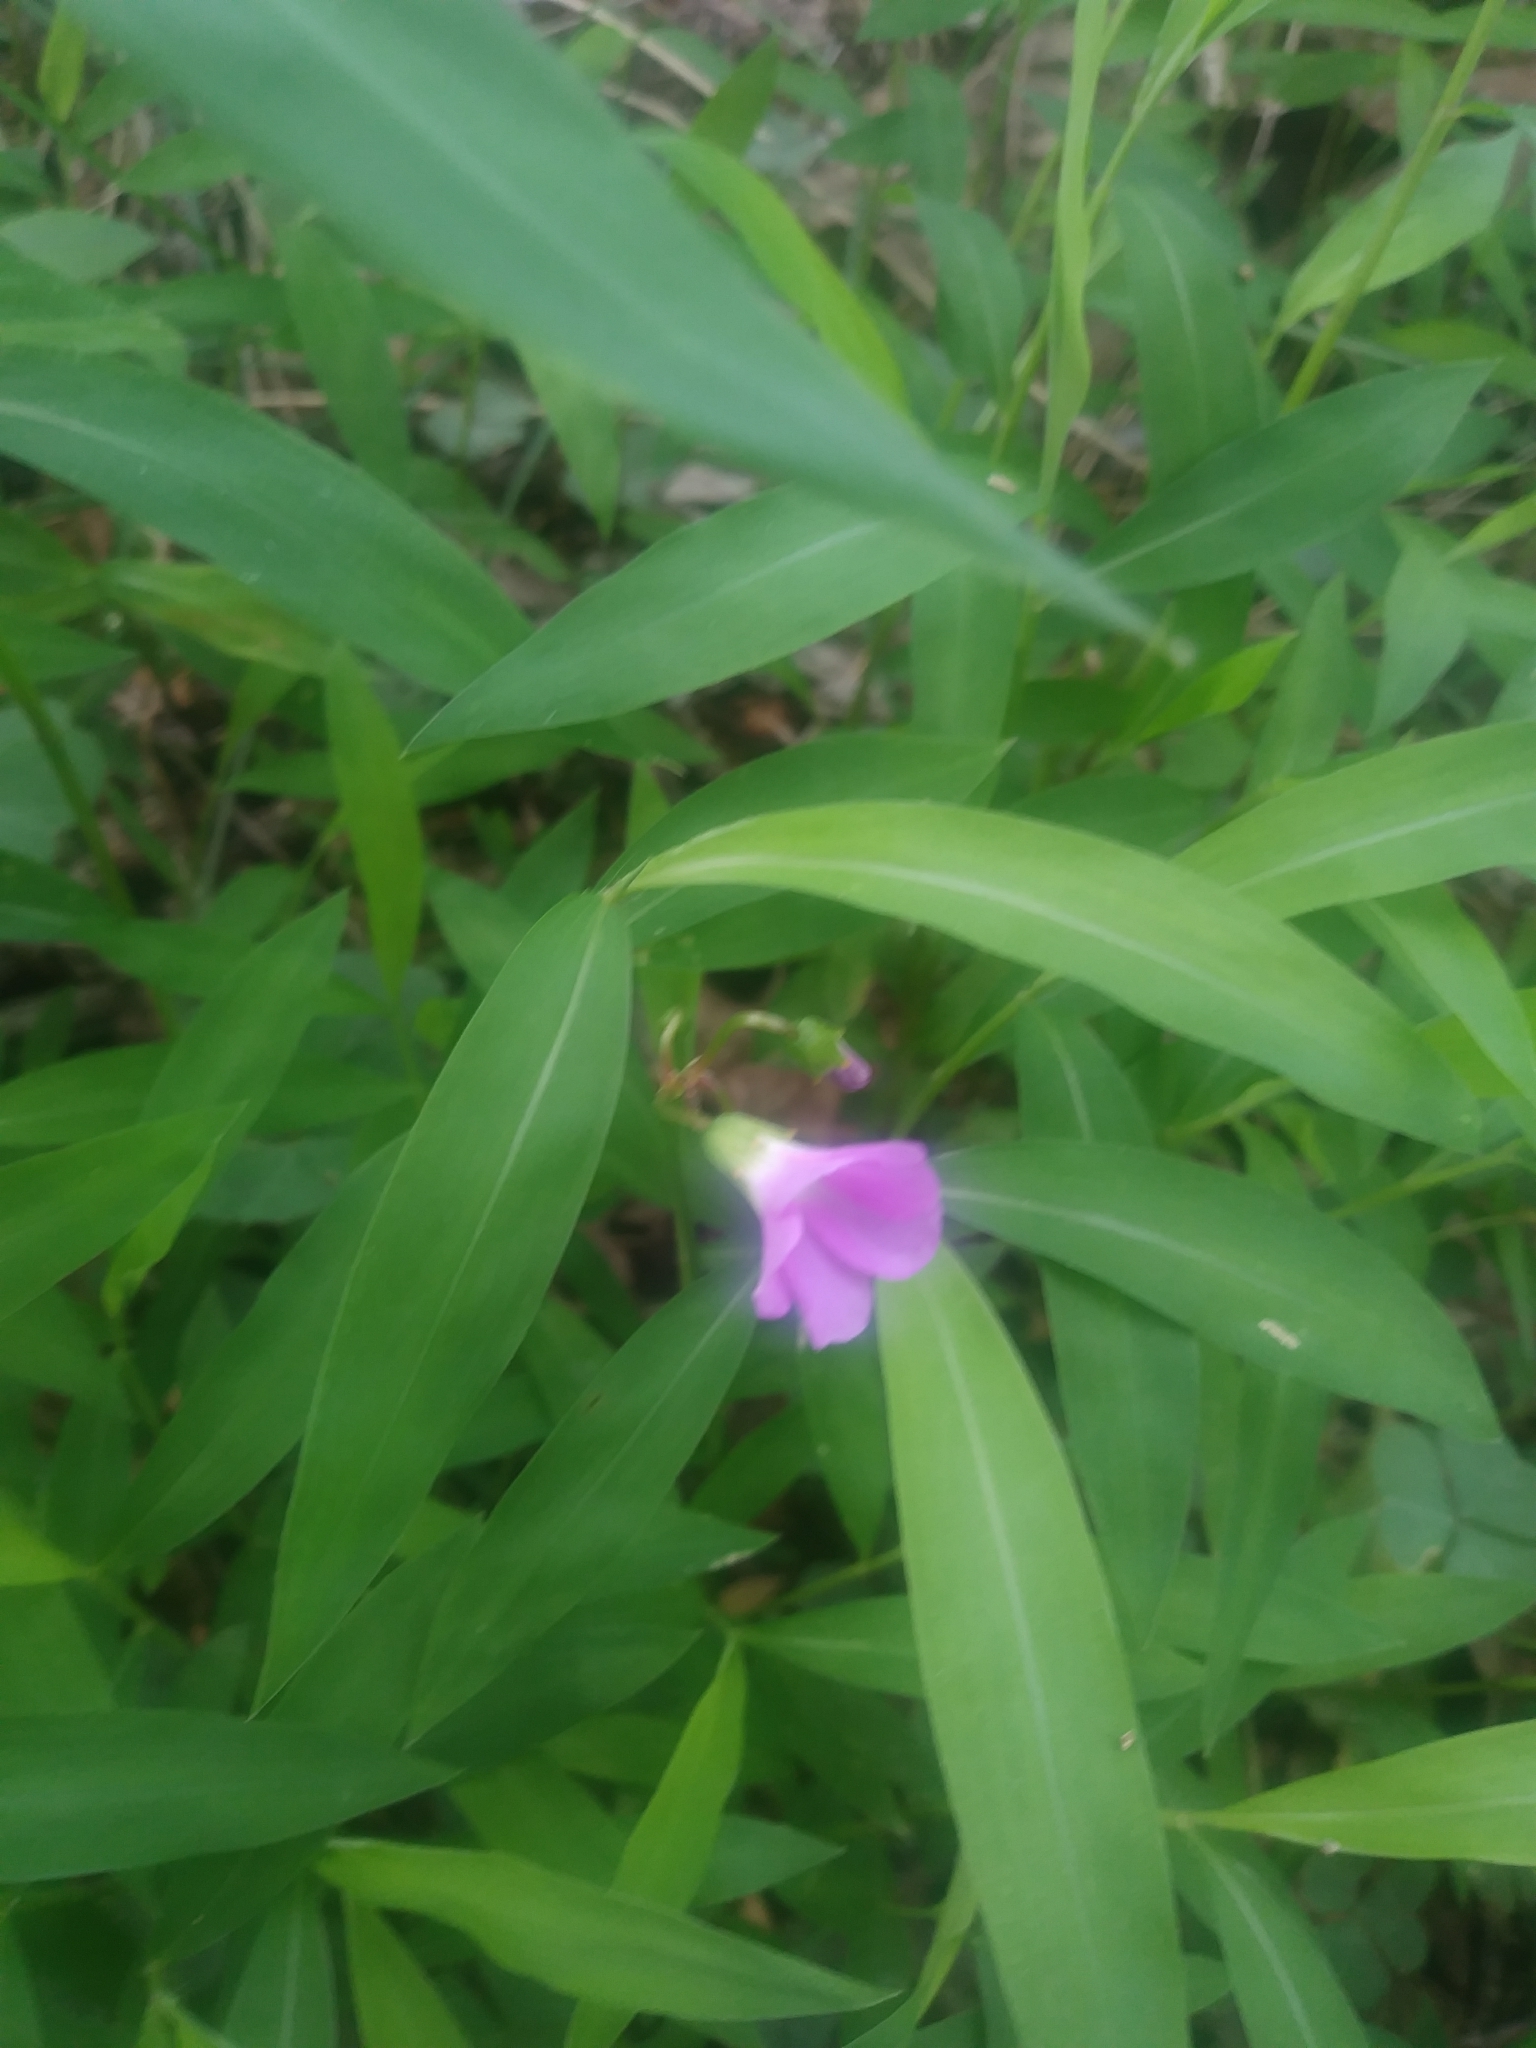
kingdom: Plantae
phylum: Tracheophyta
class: Magnoliopsida
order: Oxalidales
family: Oxalidaceae
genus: Oxalis
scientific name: Oxalis violacea
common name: Violet wood-sorrel
